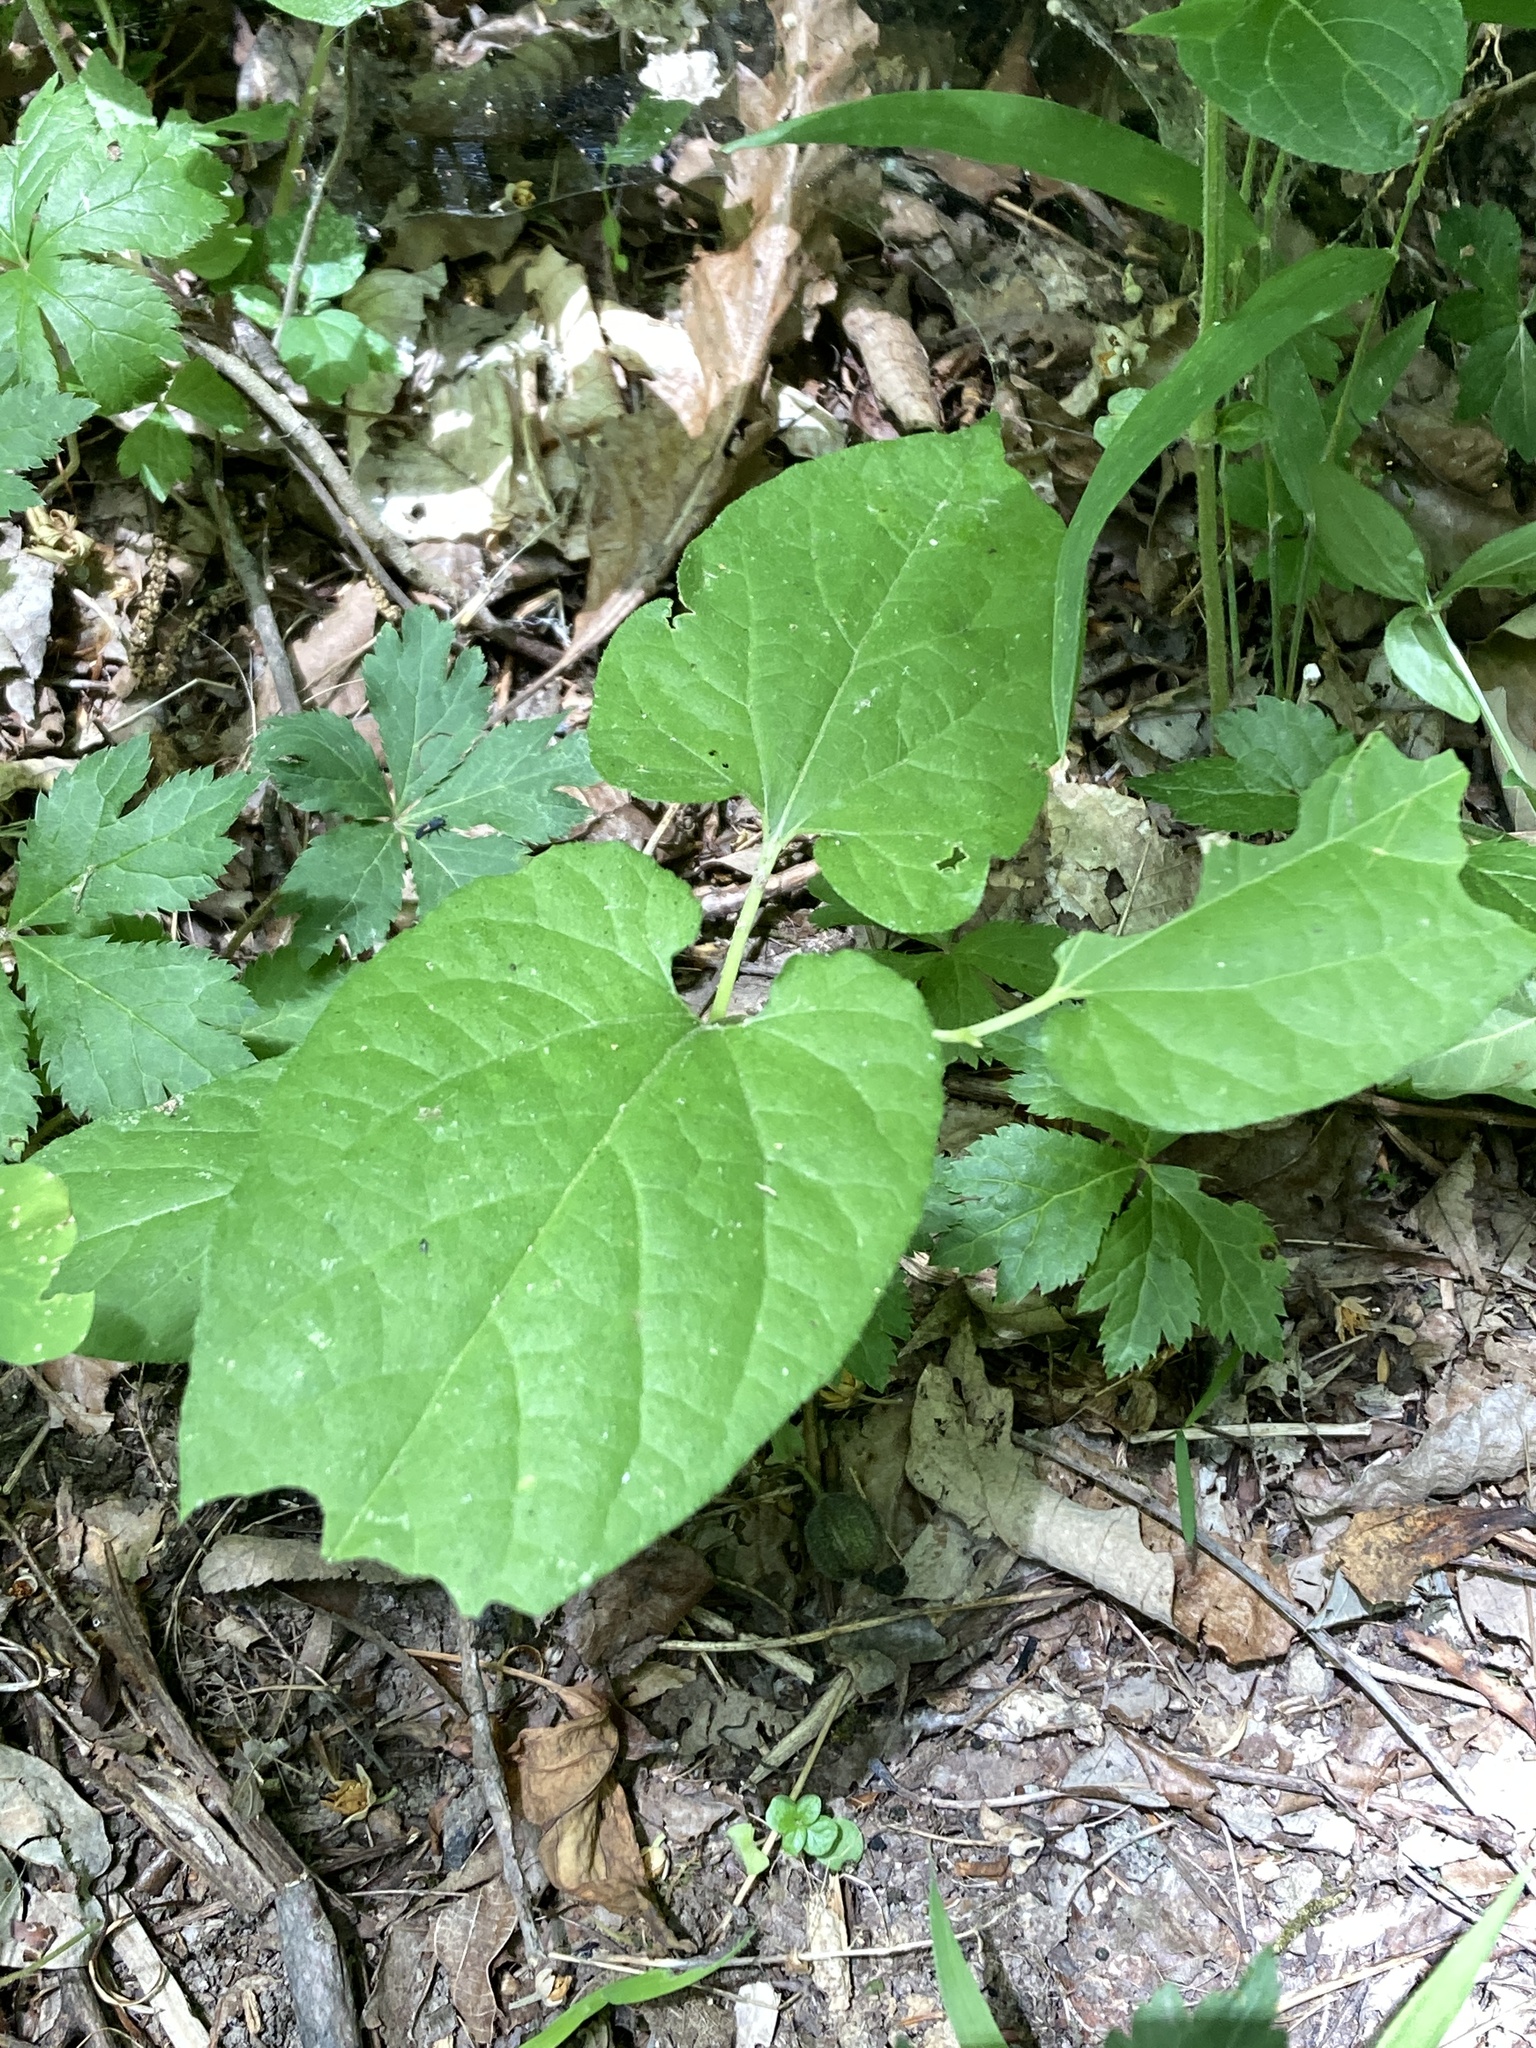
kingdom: Plantae
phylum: Tracheophyta
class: Magnoliopsida
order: Piperales
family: Aristolochiaceae
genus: Endodeca
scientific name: Endodeca serpentaria
